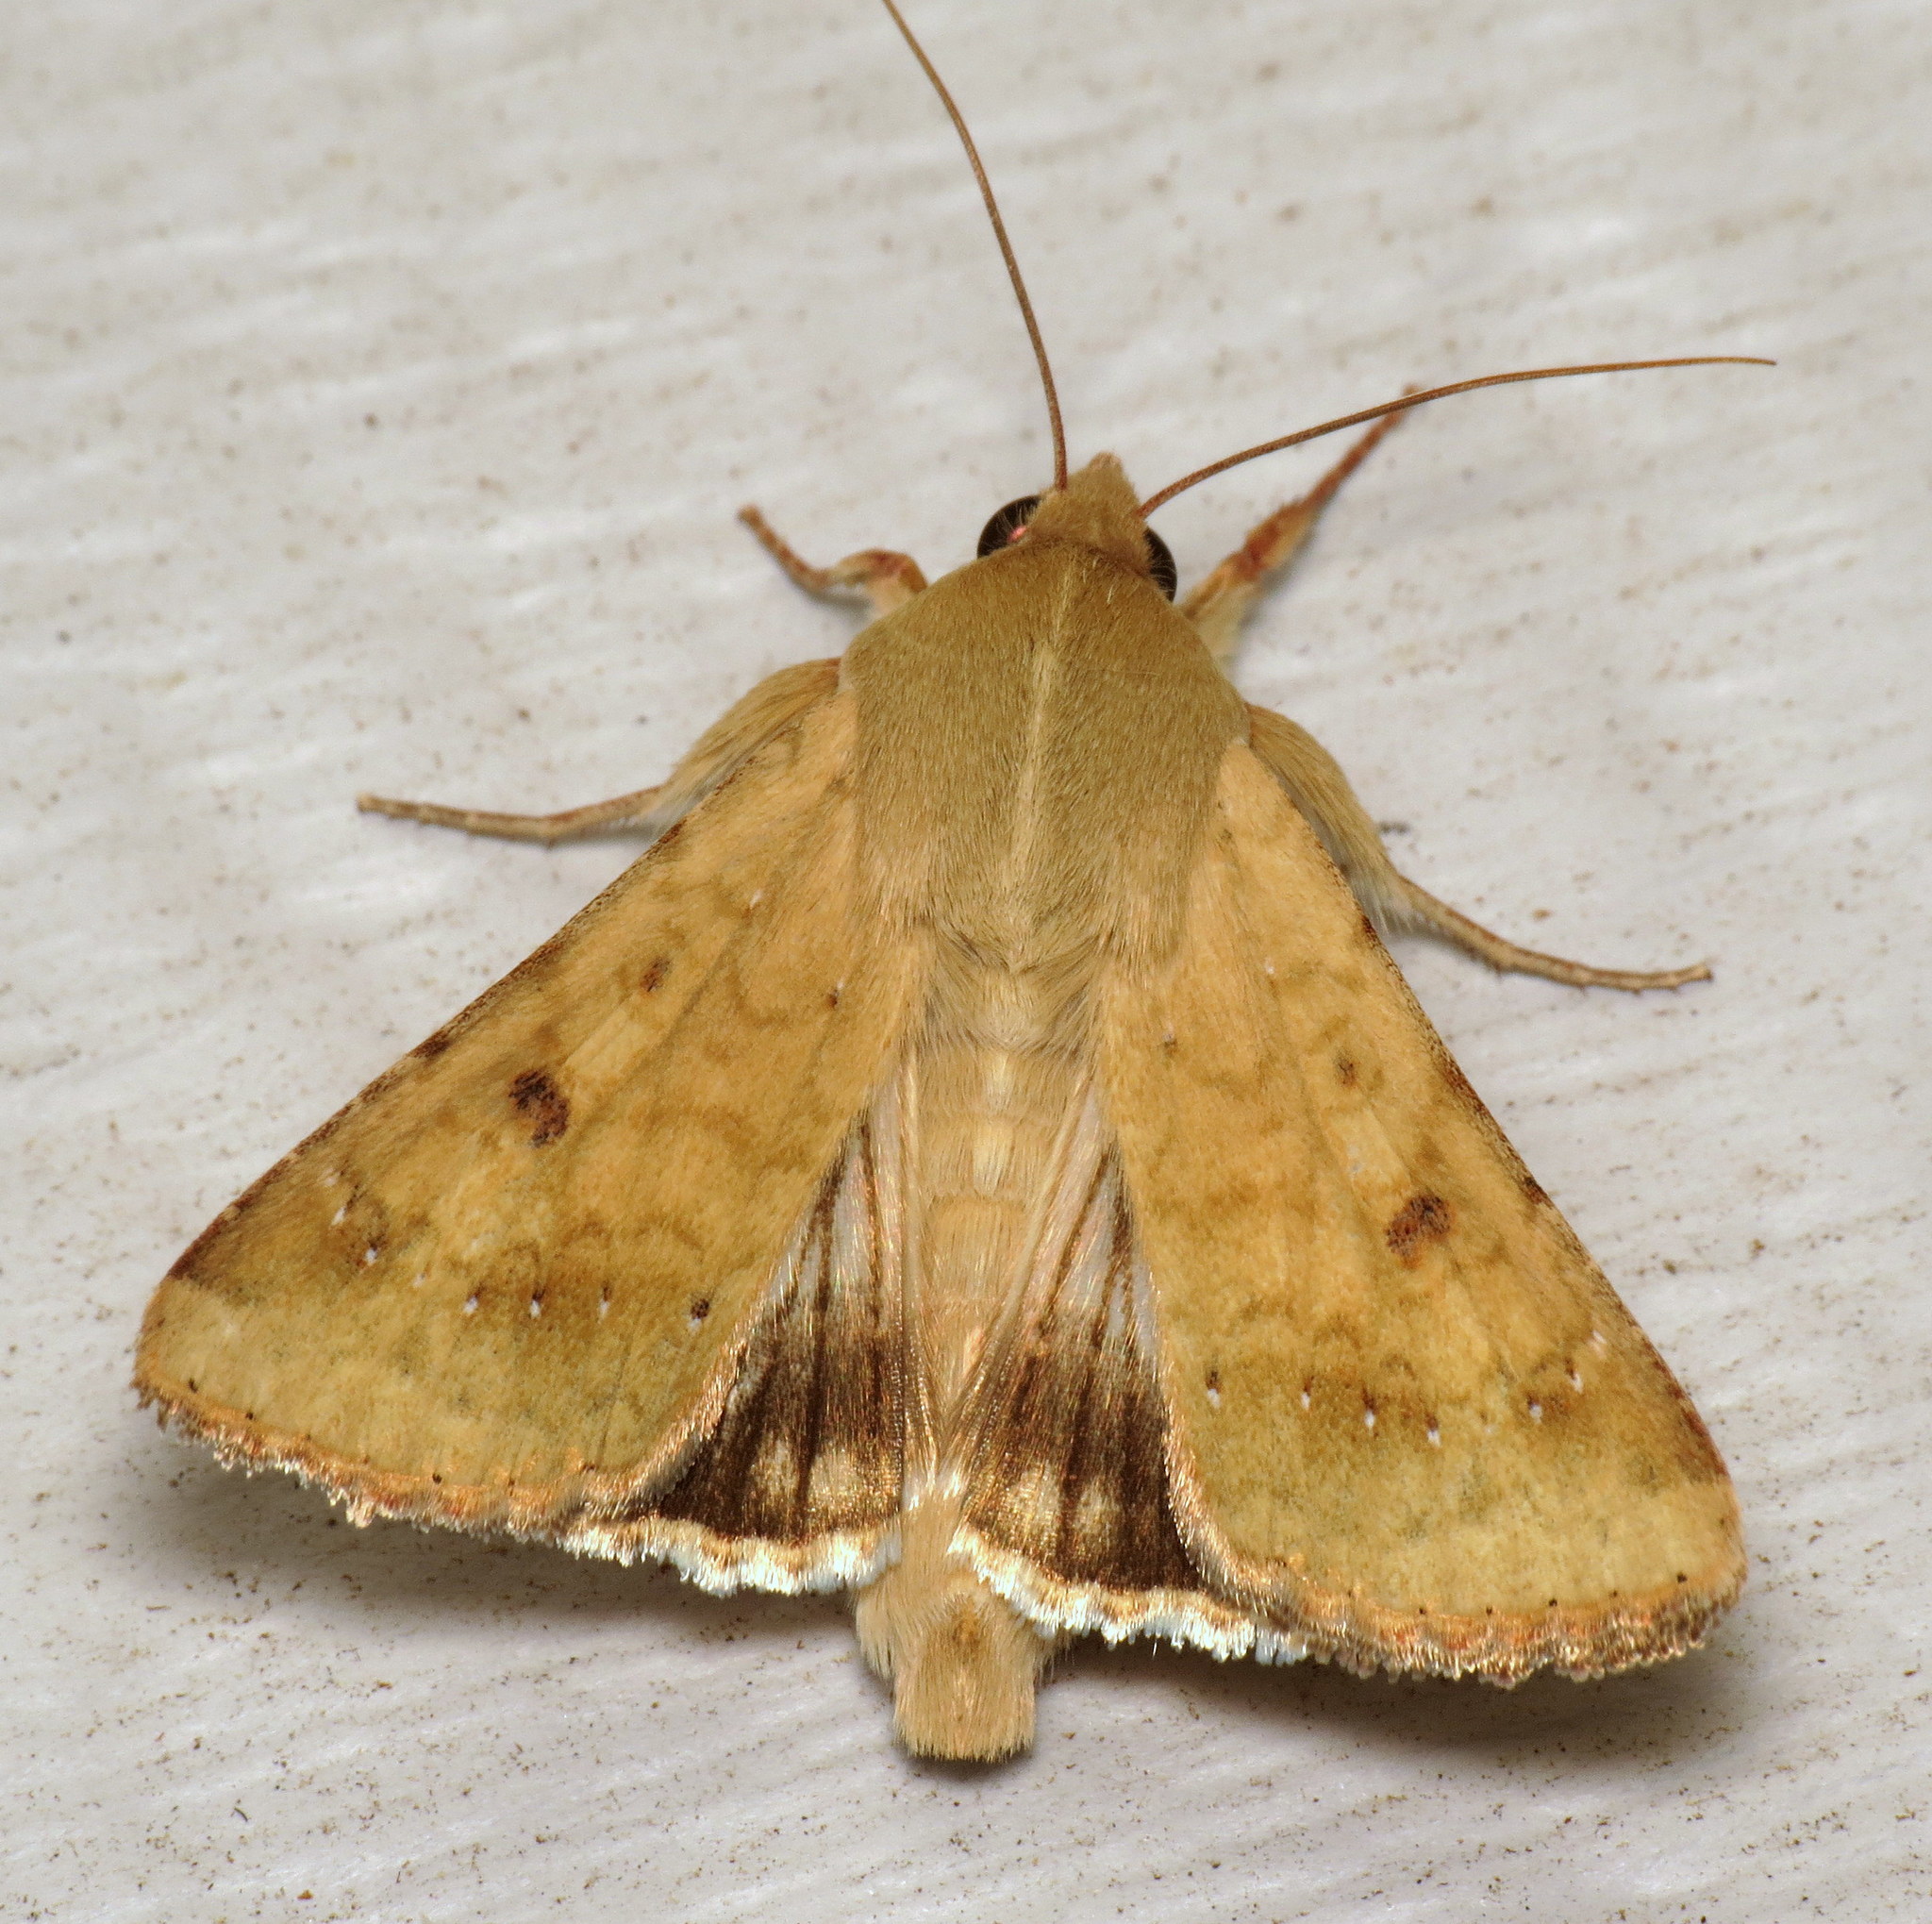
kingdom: Animalia
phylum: Arthropoda
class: Insecta
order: Lepidoptera
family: Noctuidae
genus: Helicoverpa
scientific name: Helicoverpa zea
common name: Bollworm
